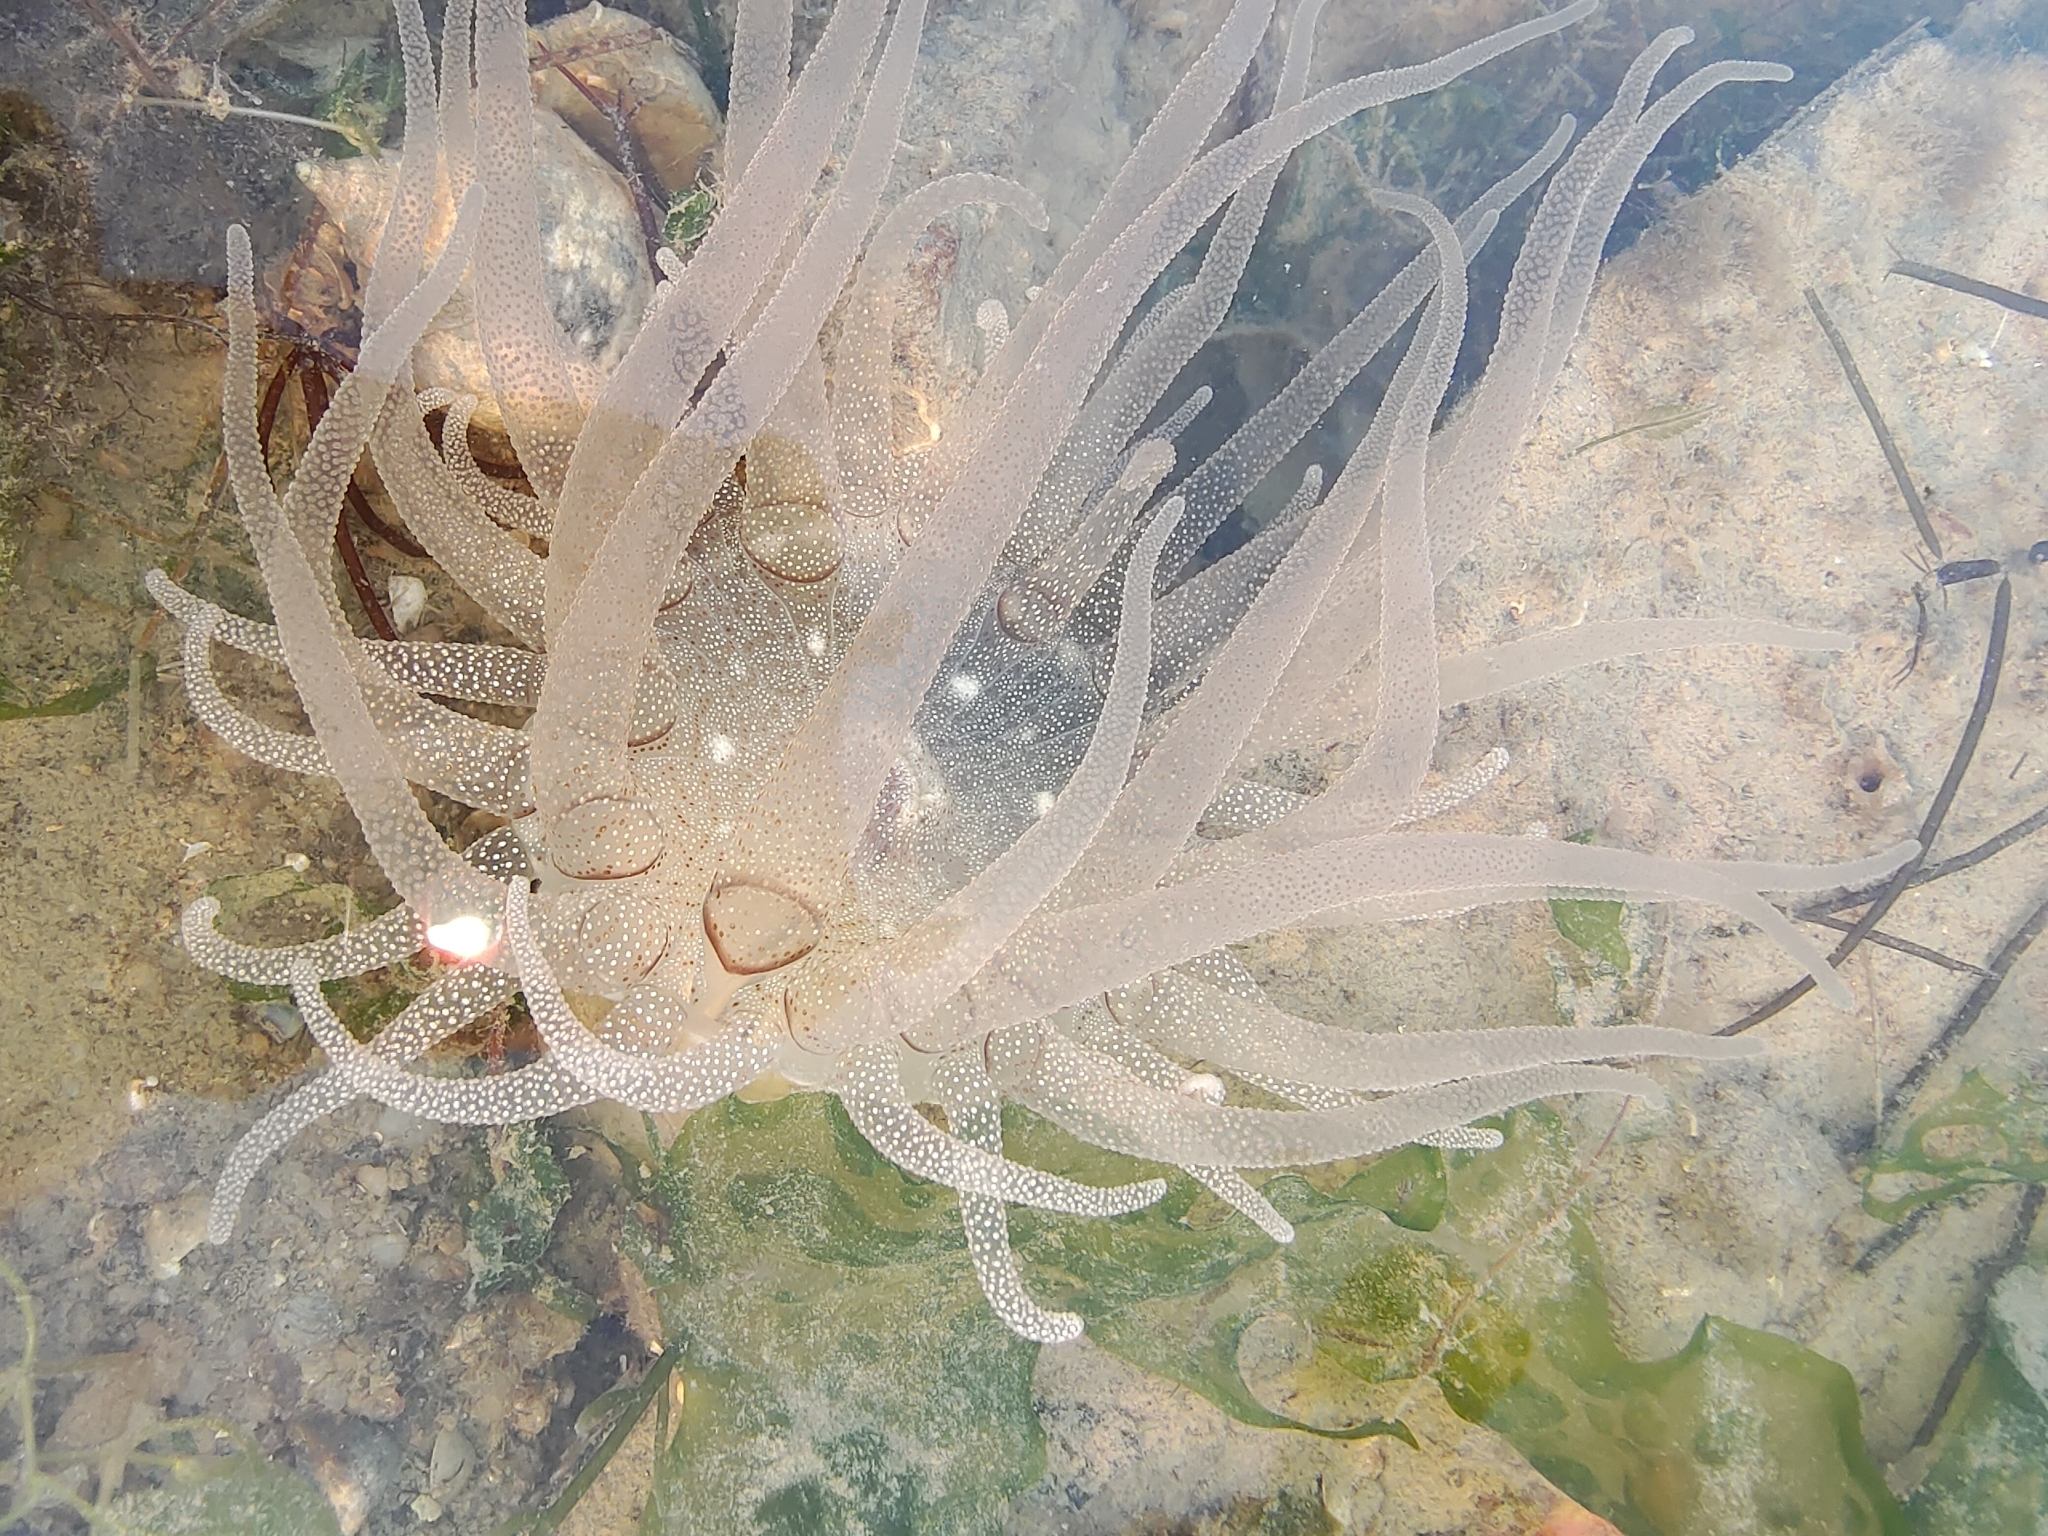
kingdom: Animalia
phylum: Cnidaria
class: Anthozoa
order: Actiniaria
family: Actiniidae
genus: Dofleinia
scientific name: Dofleinia armata
